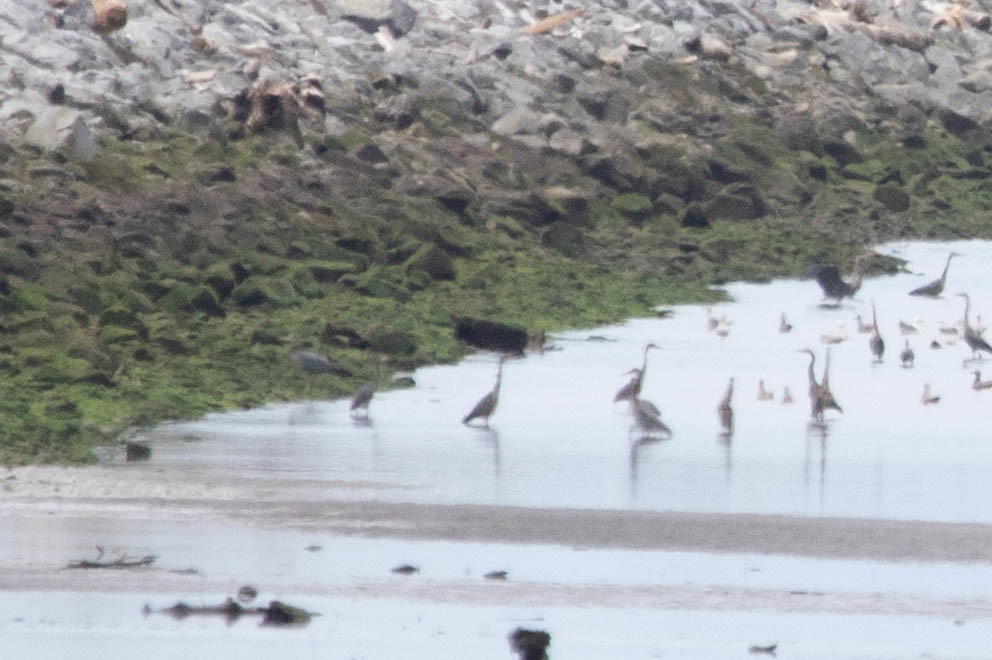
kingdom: Animalia
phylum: Chordata
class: Aves
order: Pelecaniformes
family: Ardeidae
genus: Ardea
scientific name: Ardea herodias
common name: Great blue heron
